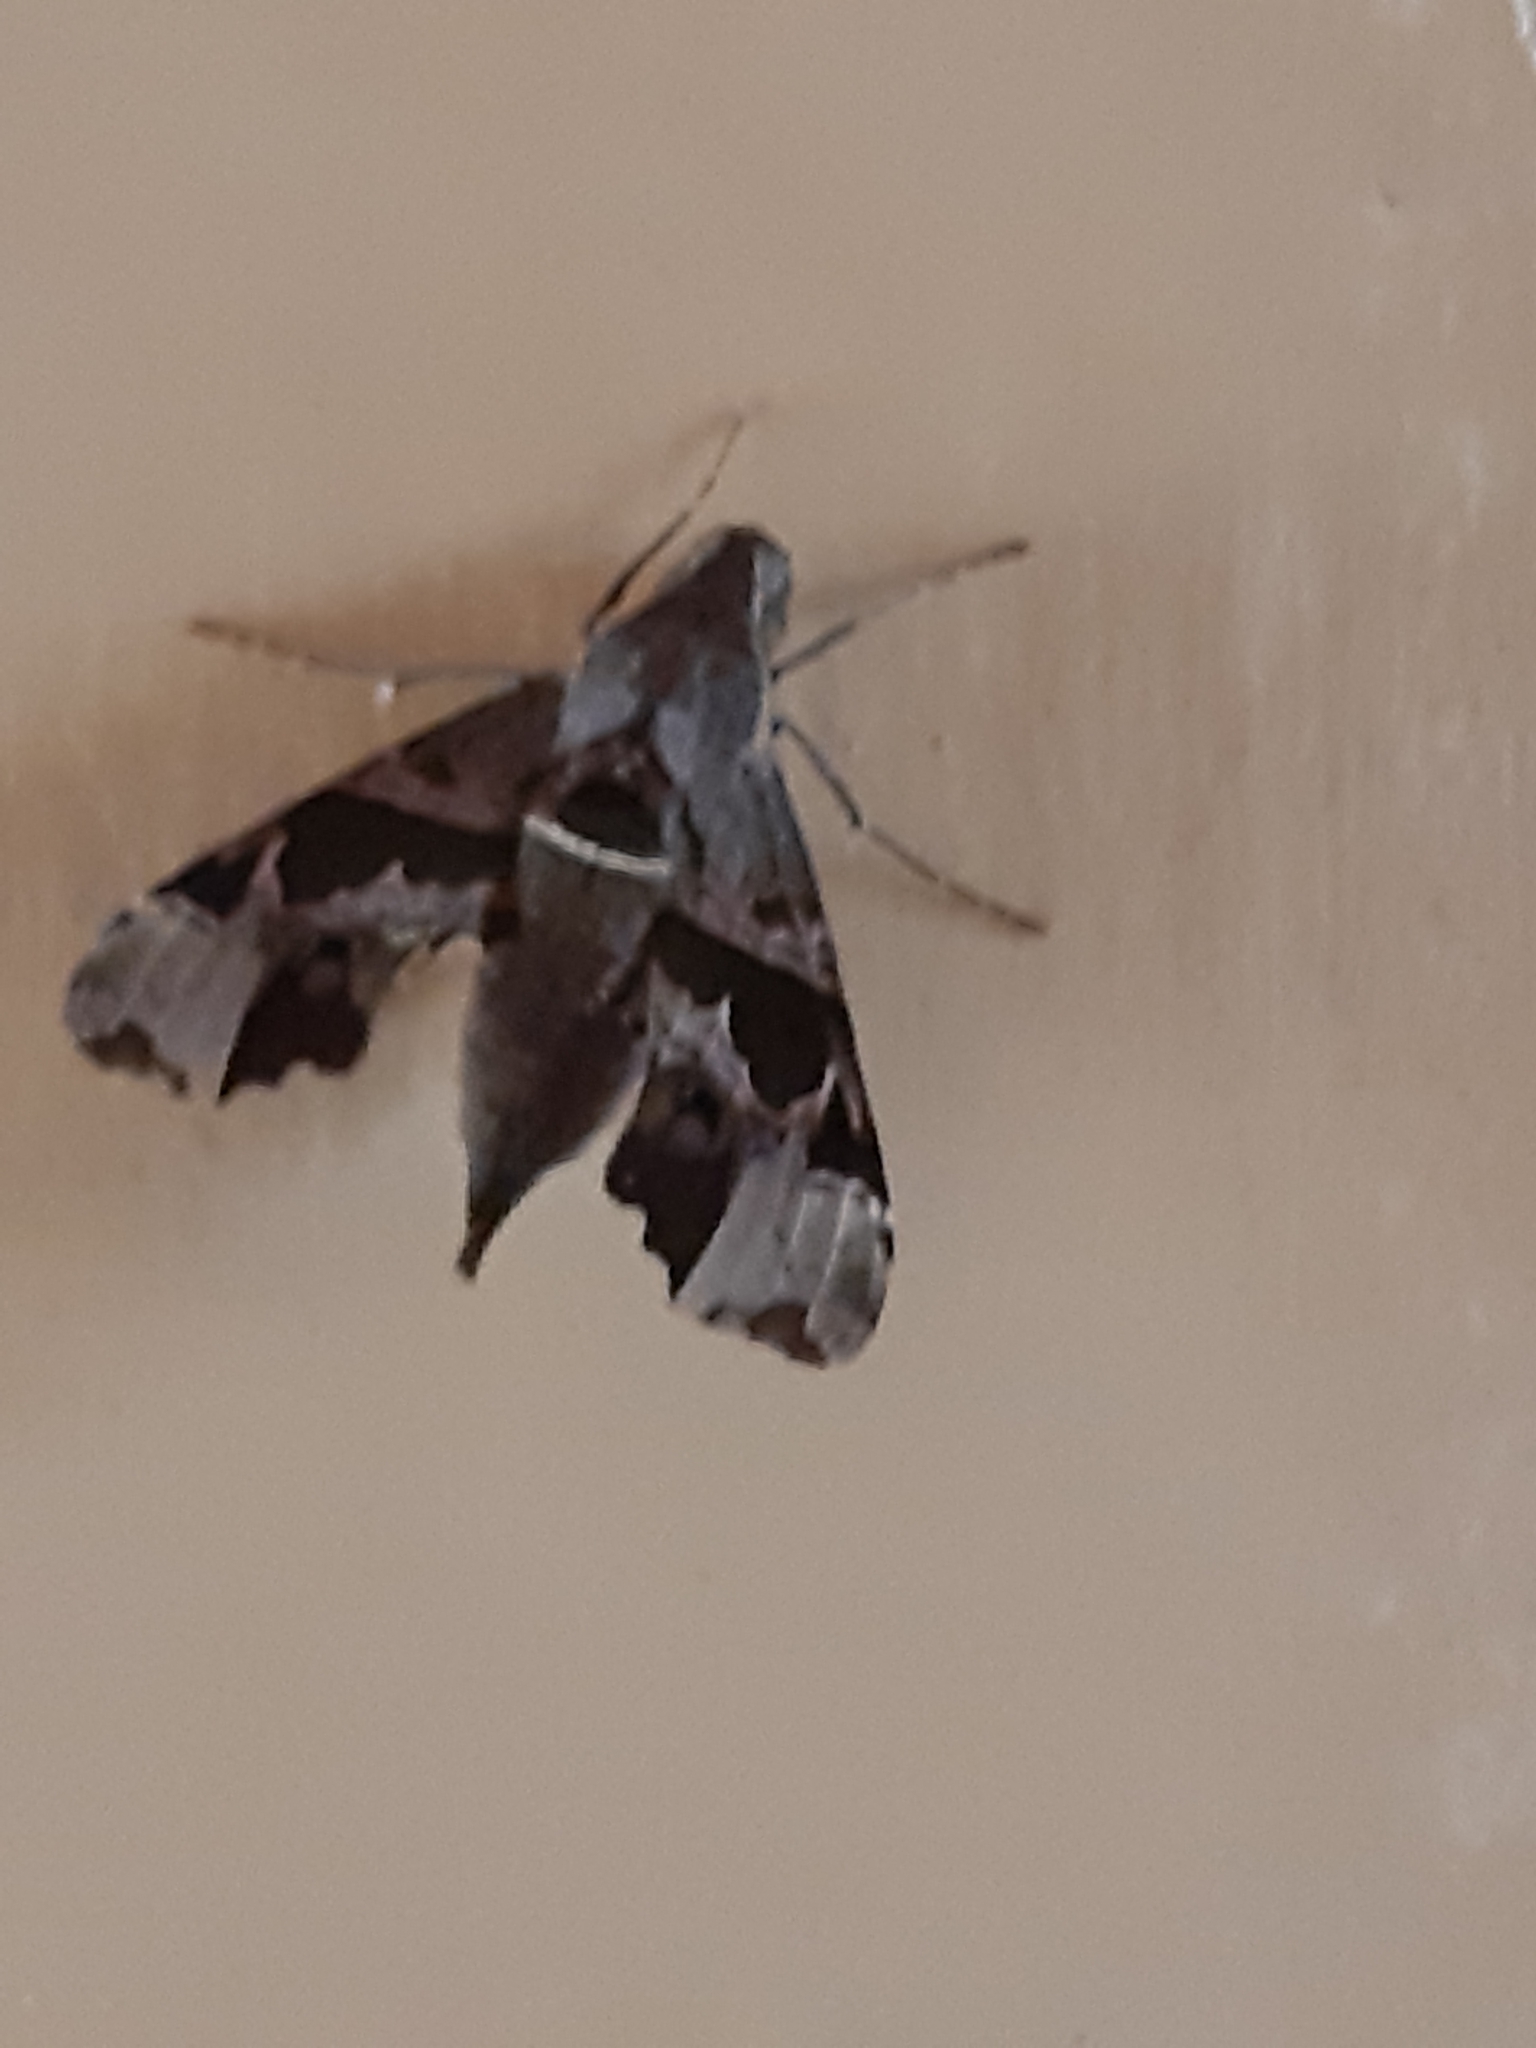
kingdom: Animalia
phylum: Arthropoda
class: Insecta
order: Lepidoptera
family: Sphingidae
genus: Unzela
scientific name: Unzela japix
